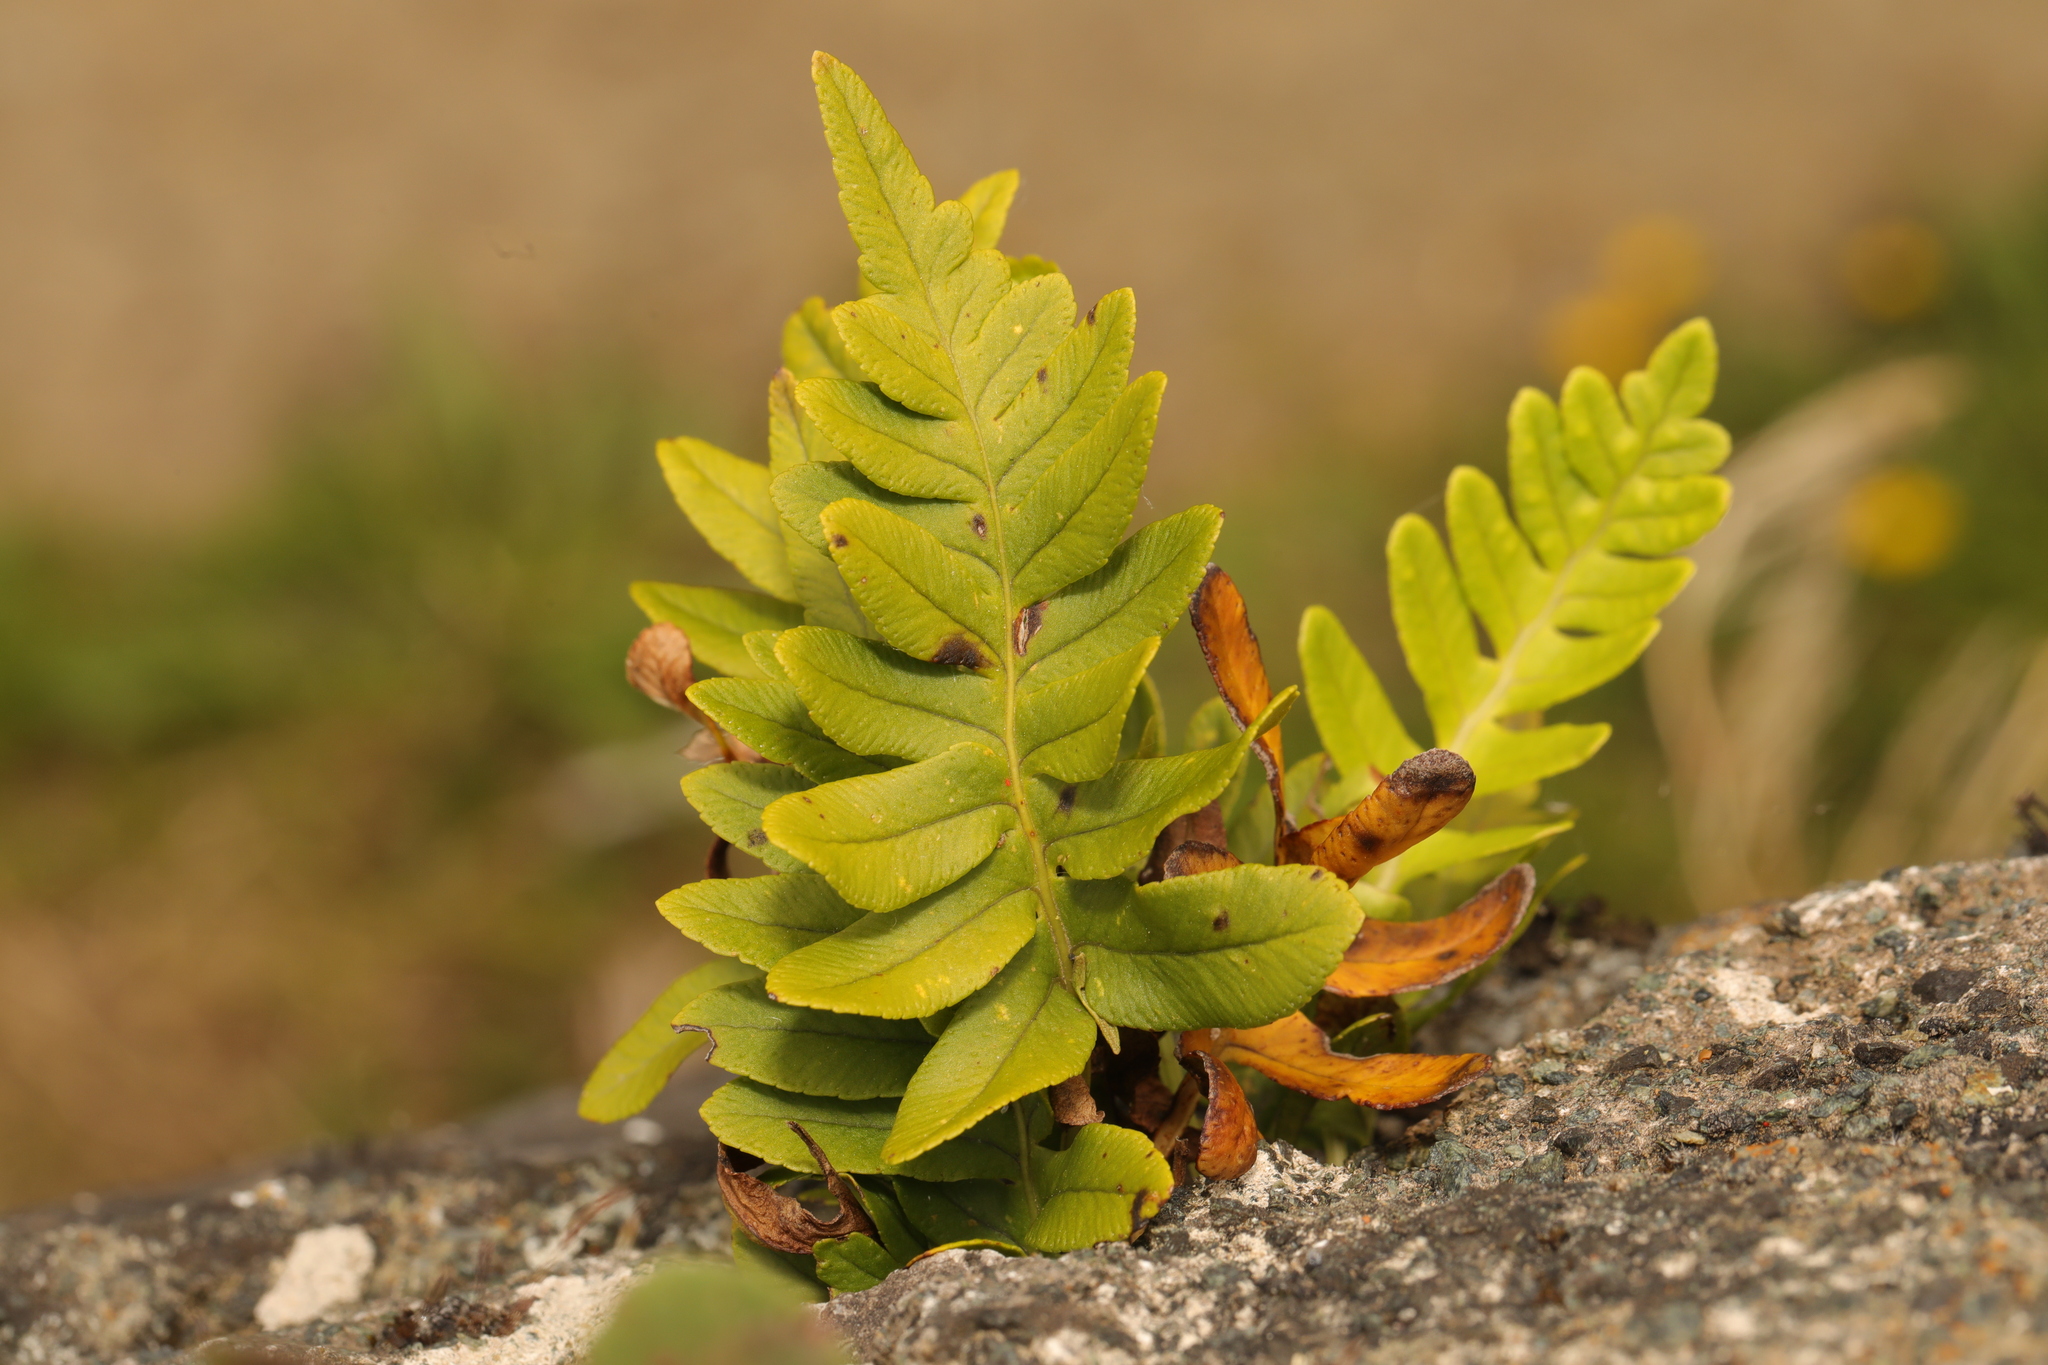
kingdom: Plantae
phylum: Tracheophyta
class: Polypodiopsida
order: Polypodiales
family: Polypodiaceae
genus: Polypodium
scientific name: Polypodium
